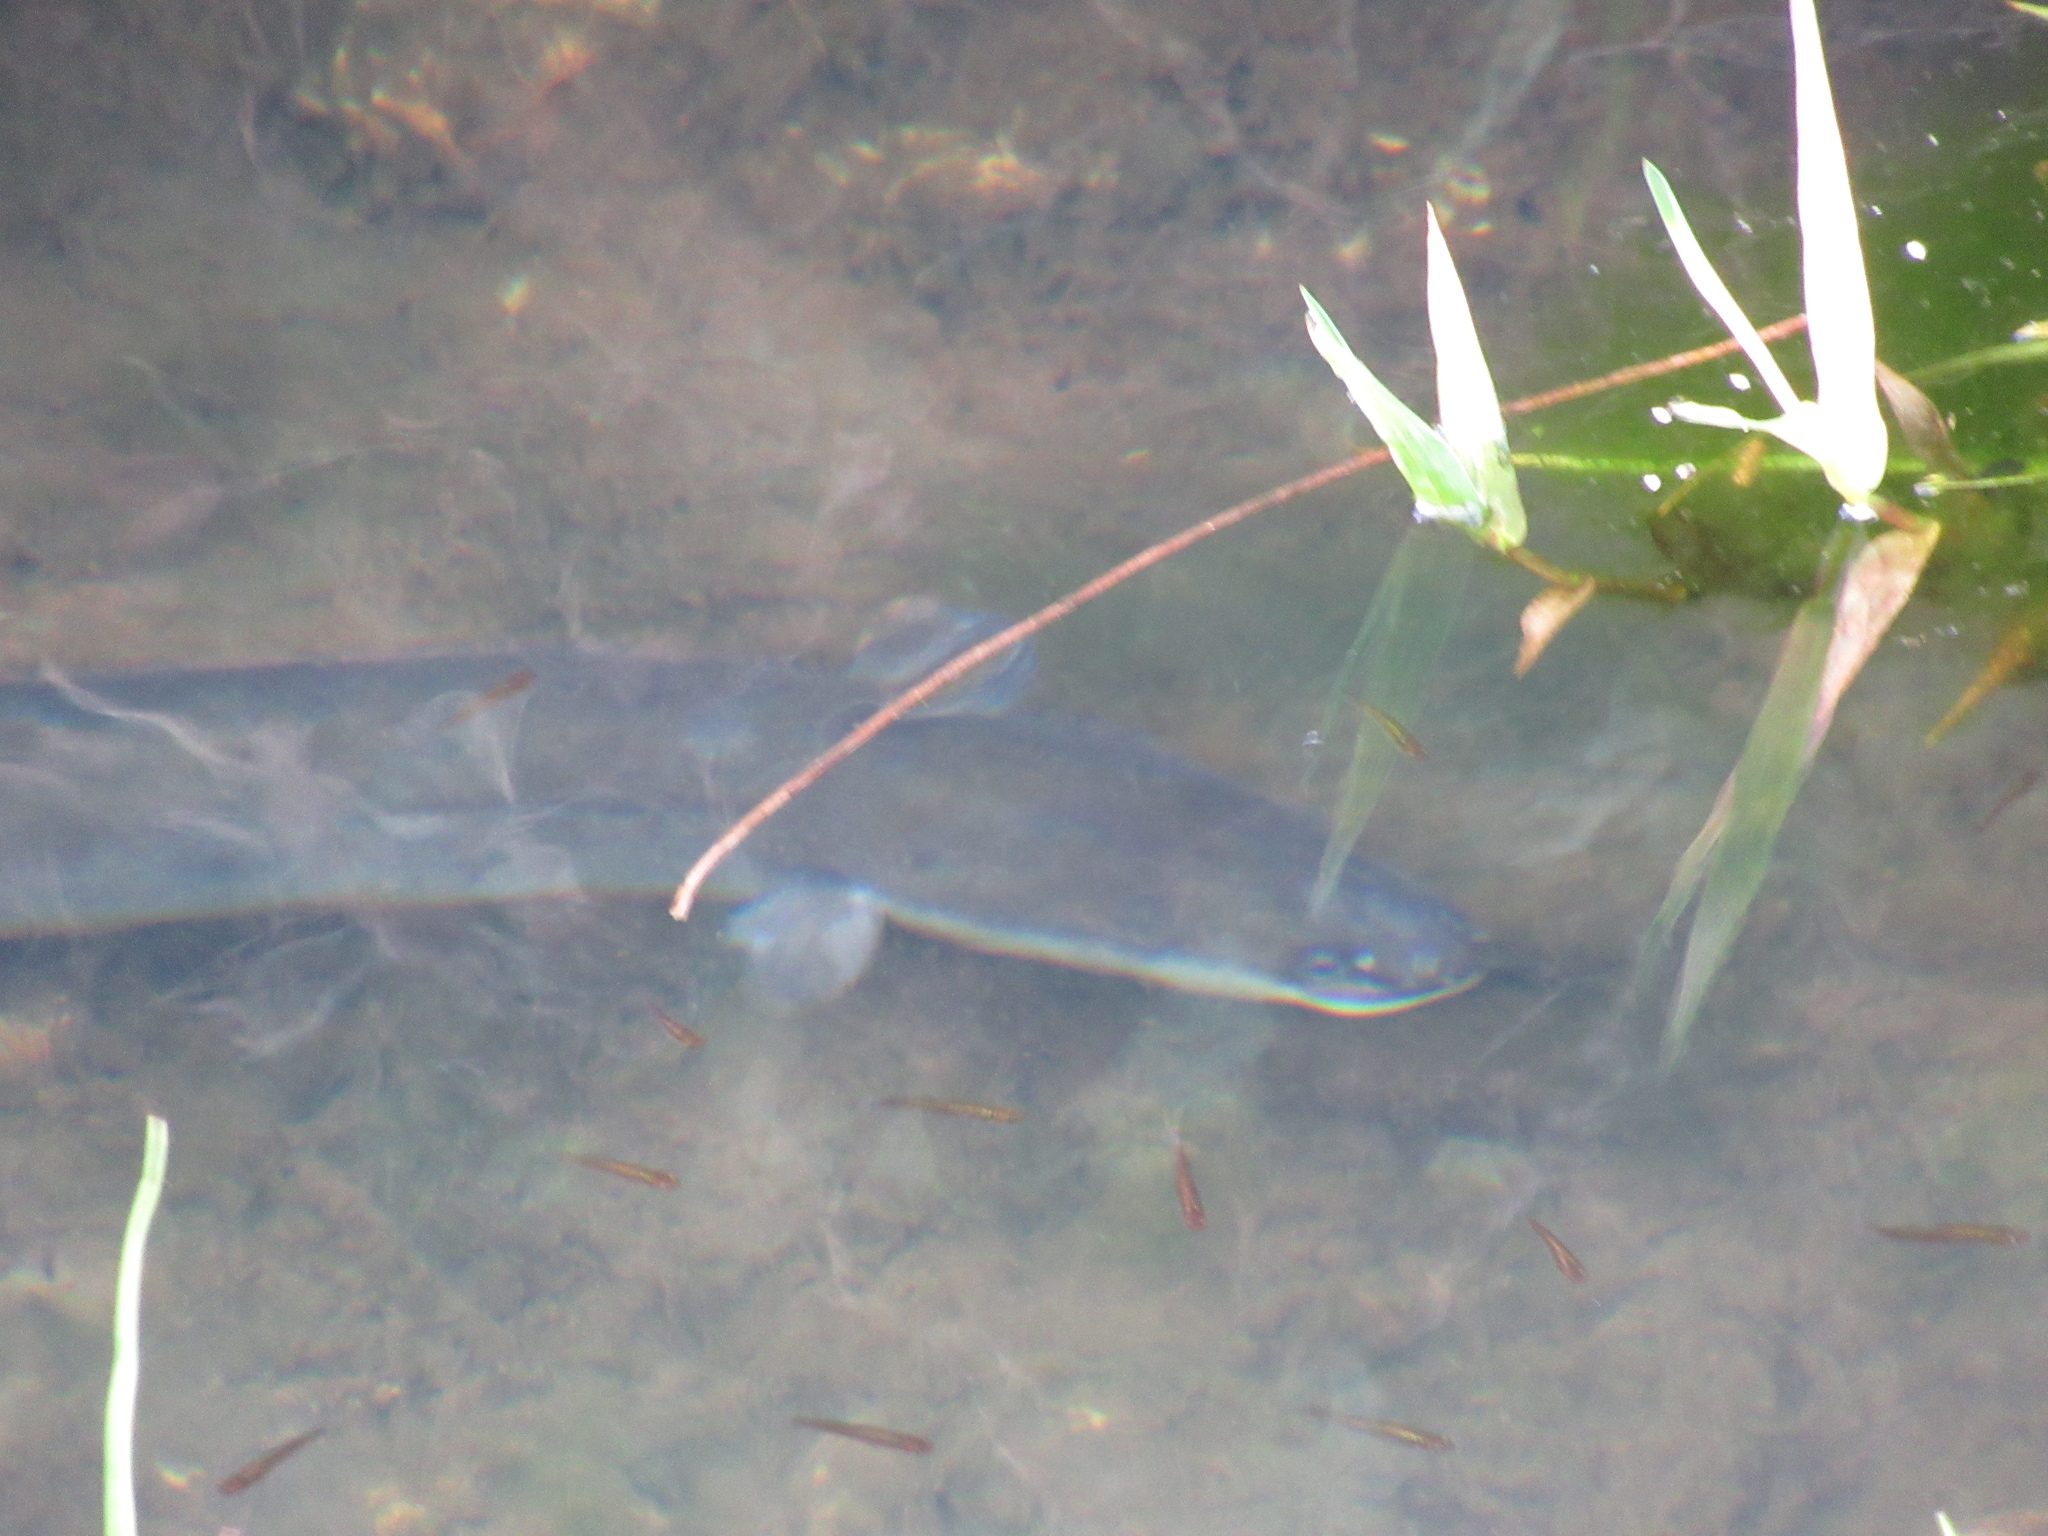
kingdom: Animalia
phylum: Chordata
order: Anguilliformes
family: Anguillidae
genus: Anguilla
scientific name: Anguilla dieffenbachii
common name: New zealand longfin eel
